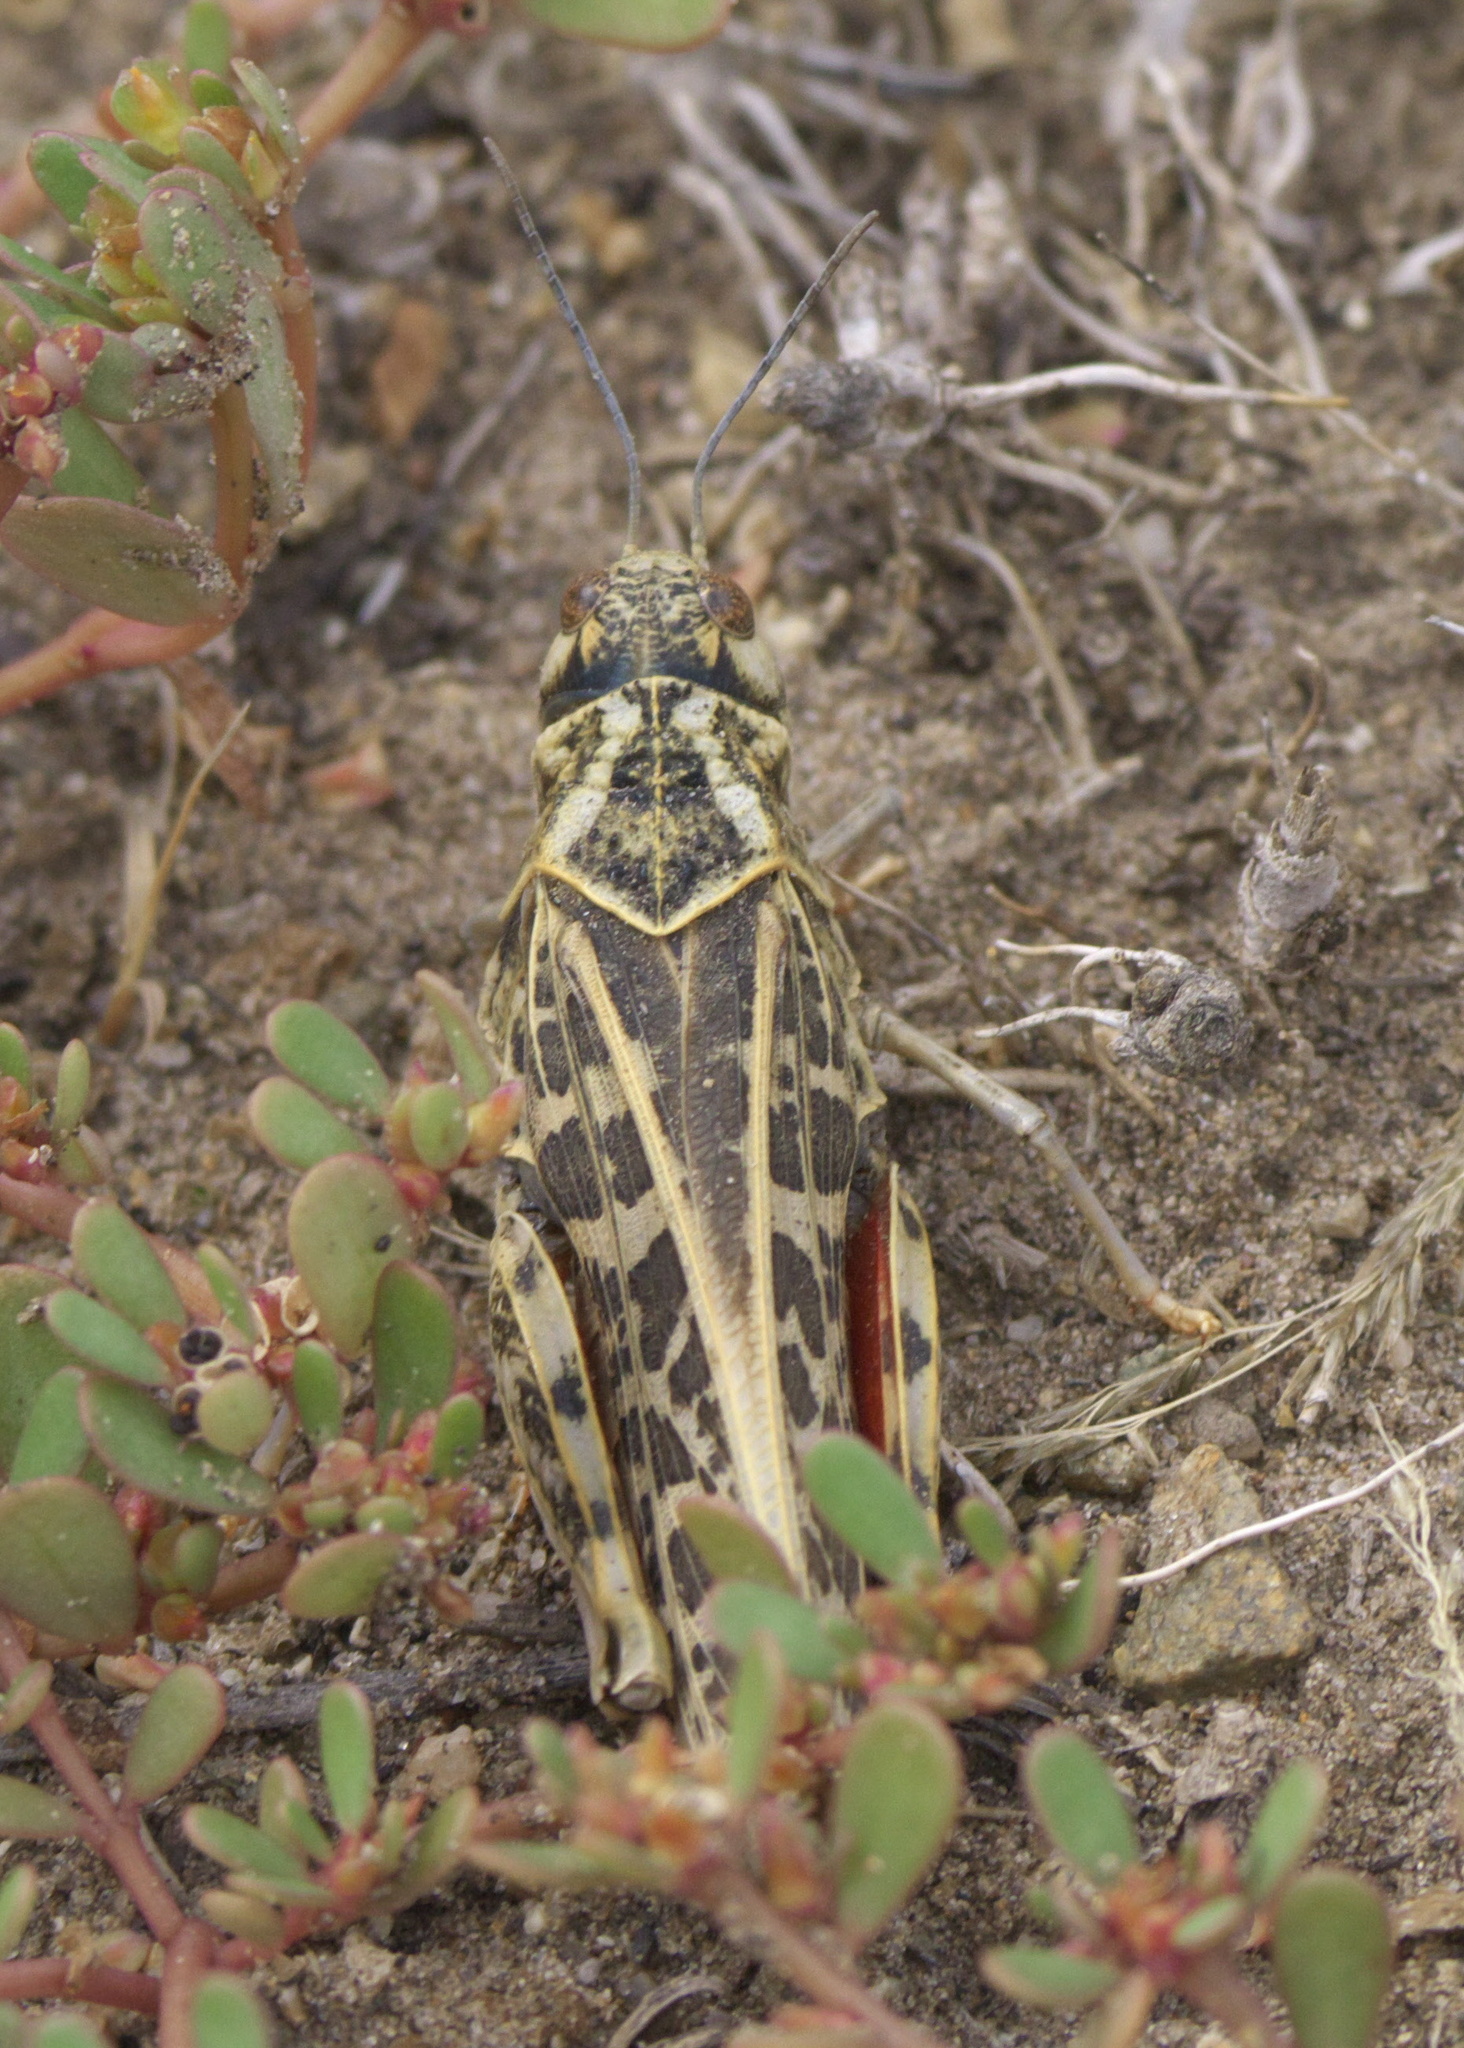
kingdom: Animalia
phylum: Arthropoda
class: Insecta
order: Orthoptera
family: Acrididae
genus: Xanthippus
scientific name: Xanthippus corallipes
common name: Redshanked grasshopper
